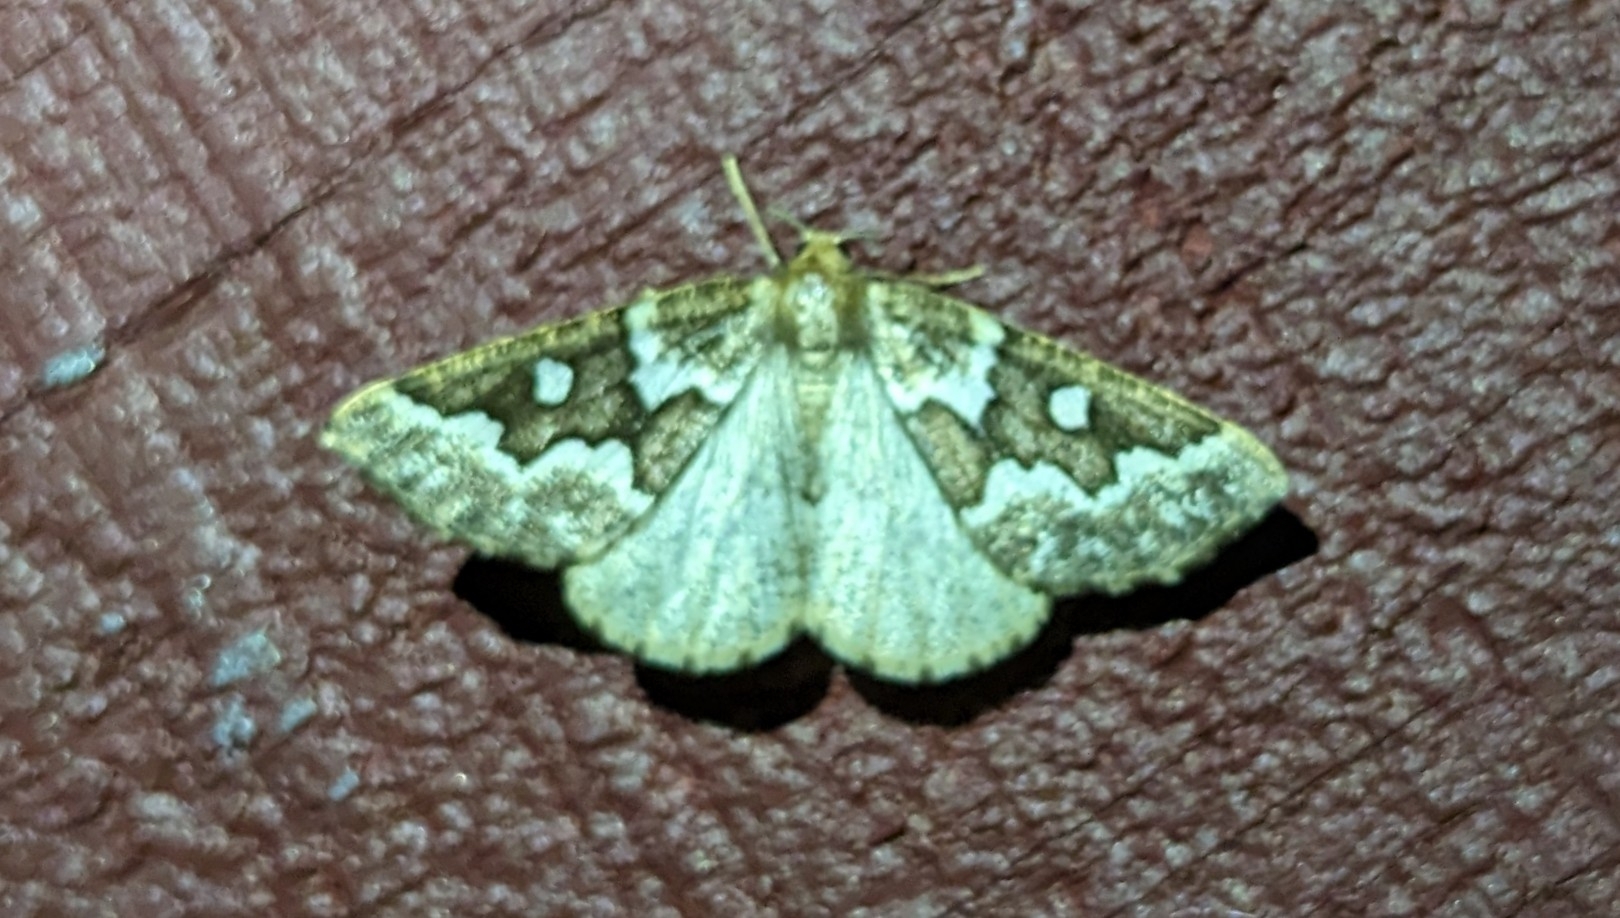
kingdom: Animalia
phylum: Arthropoda
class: Insecta
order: Lepidoptera
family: Geometridae
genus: Caripeta
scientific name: Caripeta divisata
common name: Gray spruce looper
